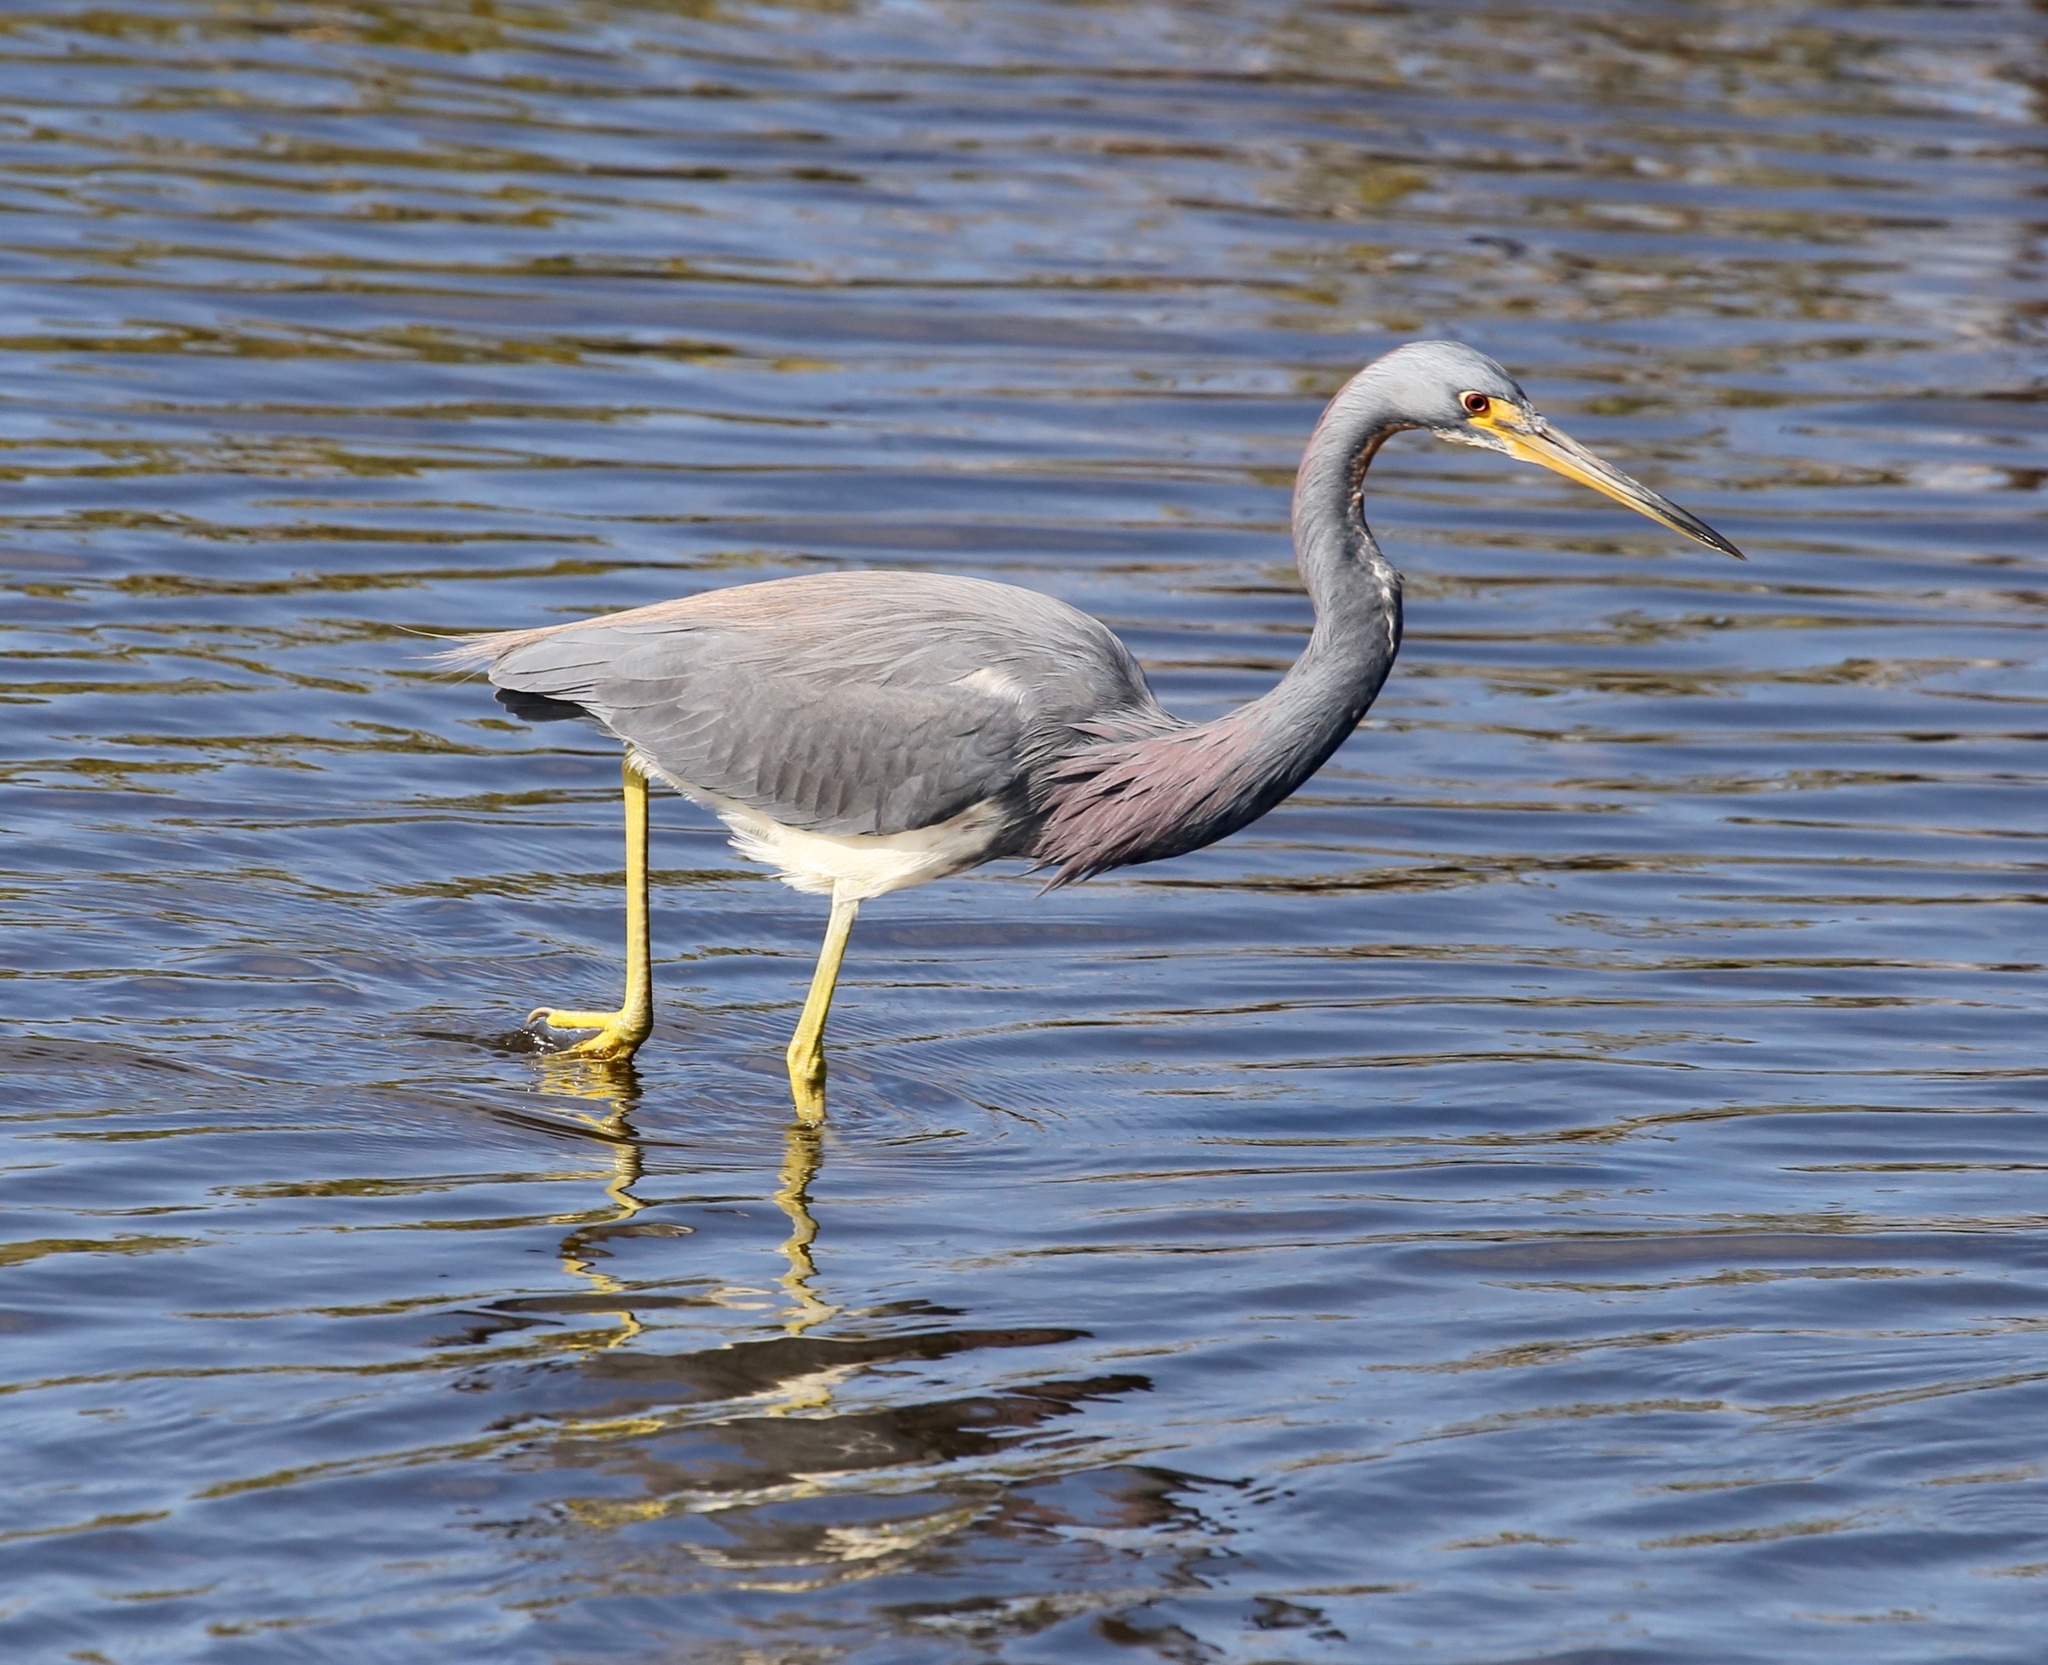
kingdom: Animalia
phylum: Chordata
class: Aves
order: Pelecaniformes
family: Ardeidae
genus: Egretta
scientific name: Egretta tricolor
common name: Tricolored heron
